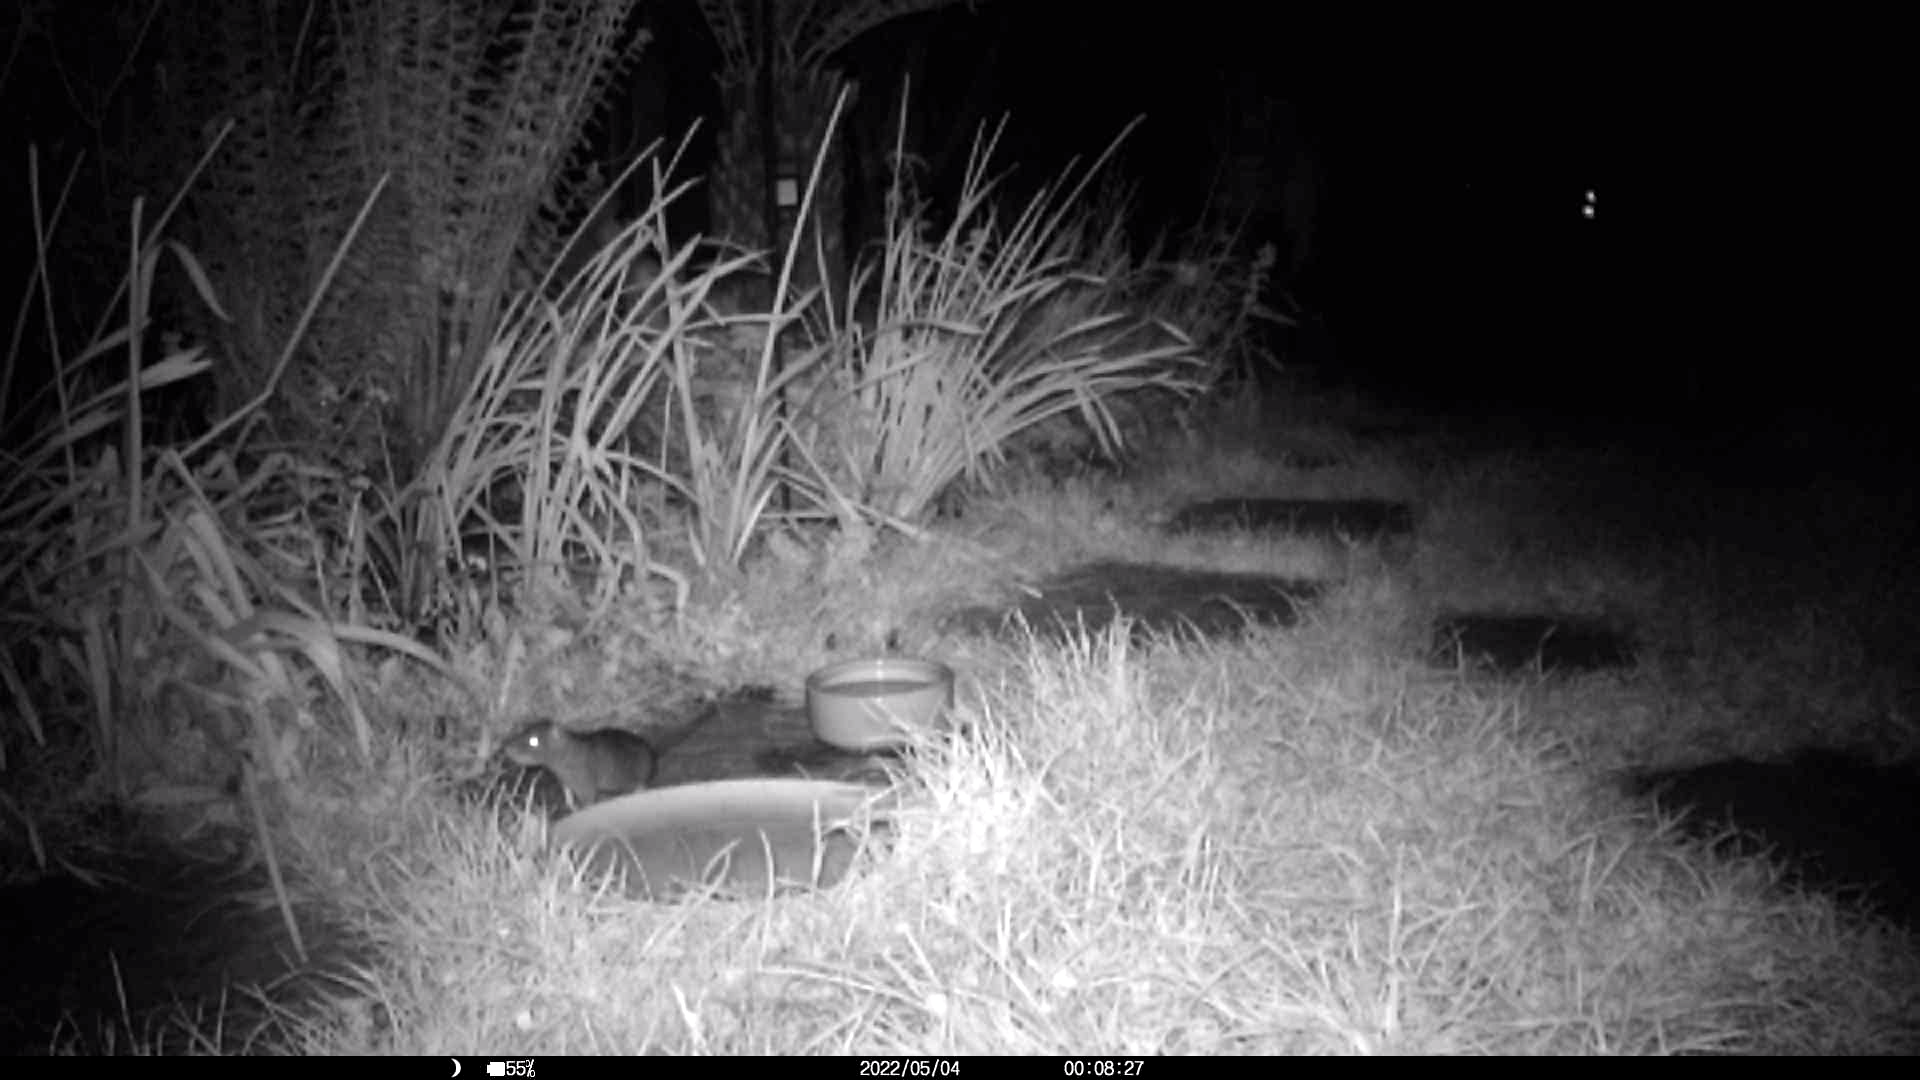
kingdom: Animalia
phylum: Chordata
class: Mammalia
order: Rodentia
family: Muridae
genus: Rattus
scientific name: Rattus norvegicus
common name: Brown rat
